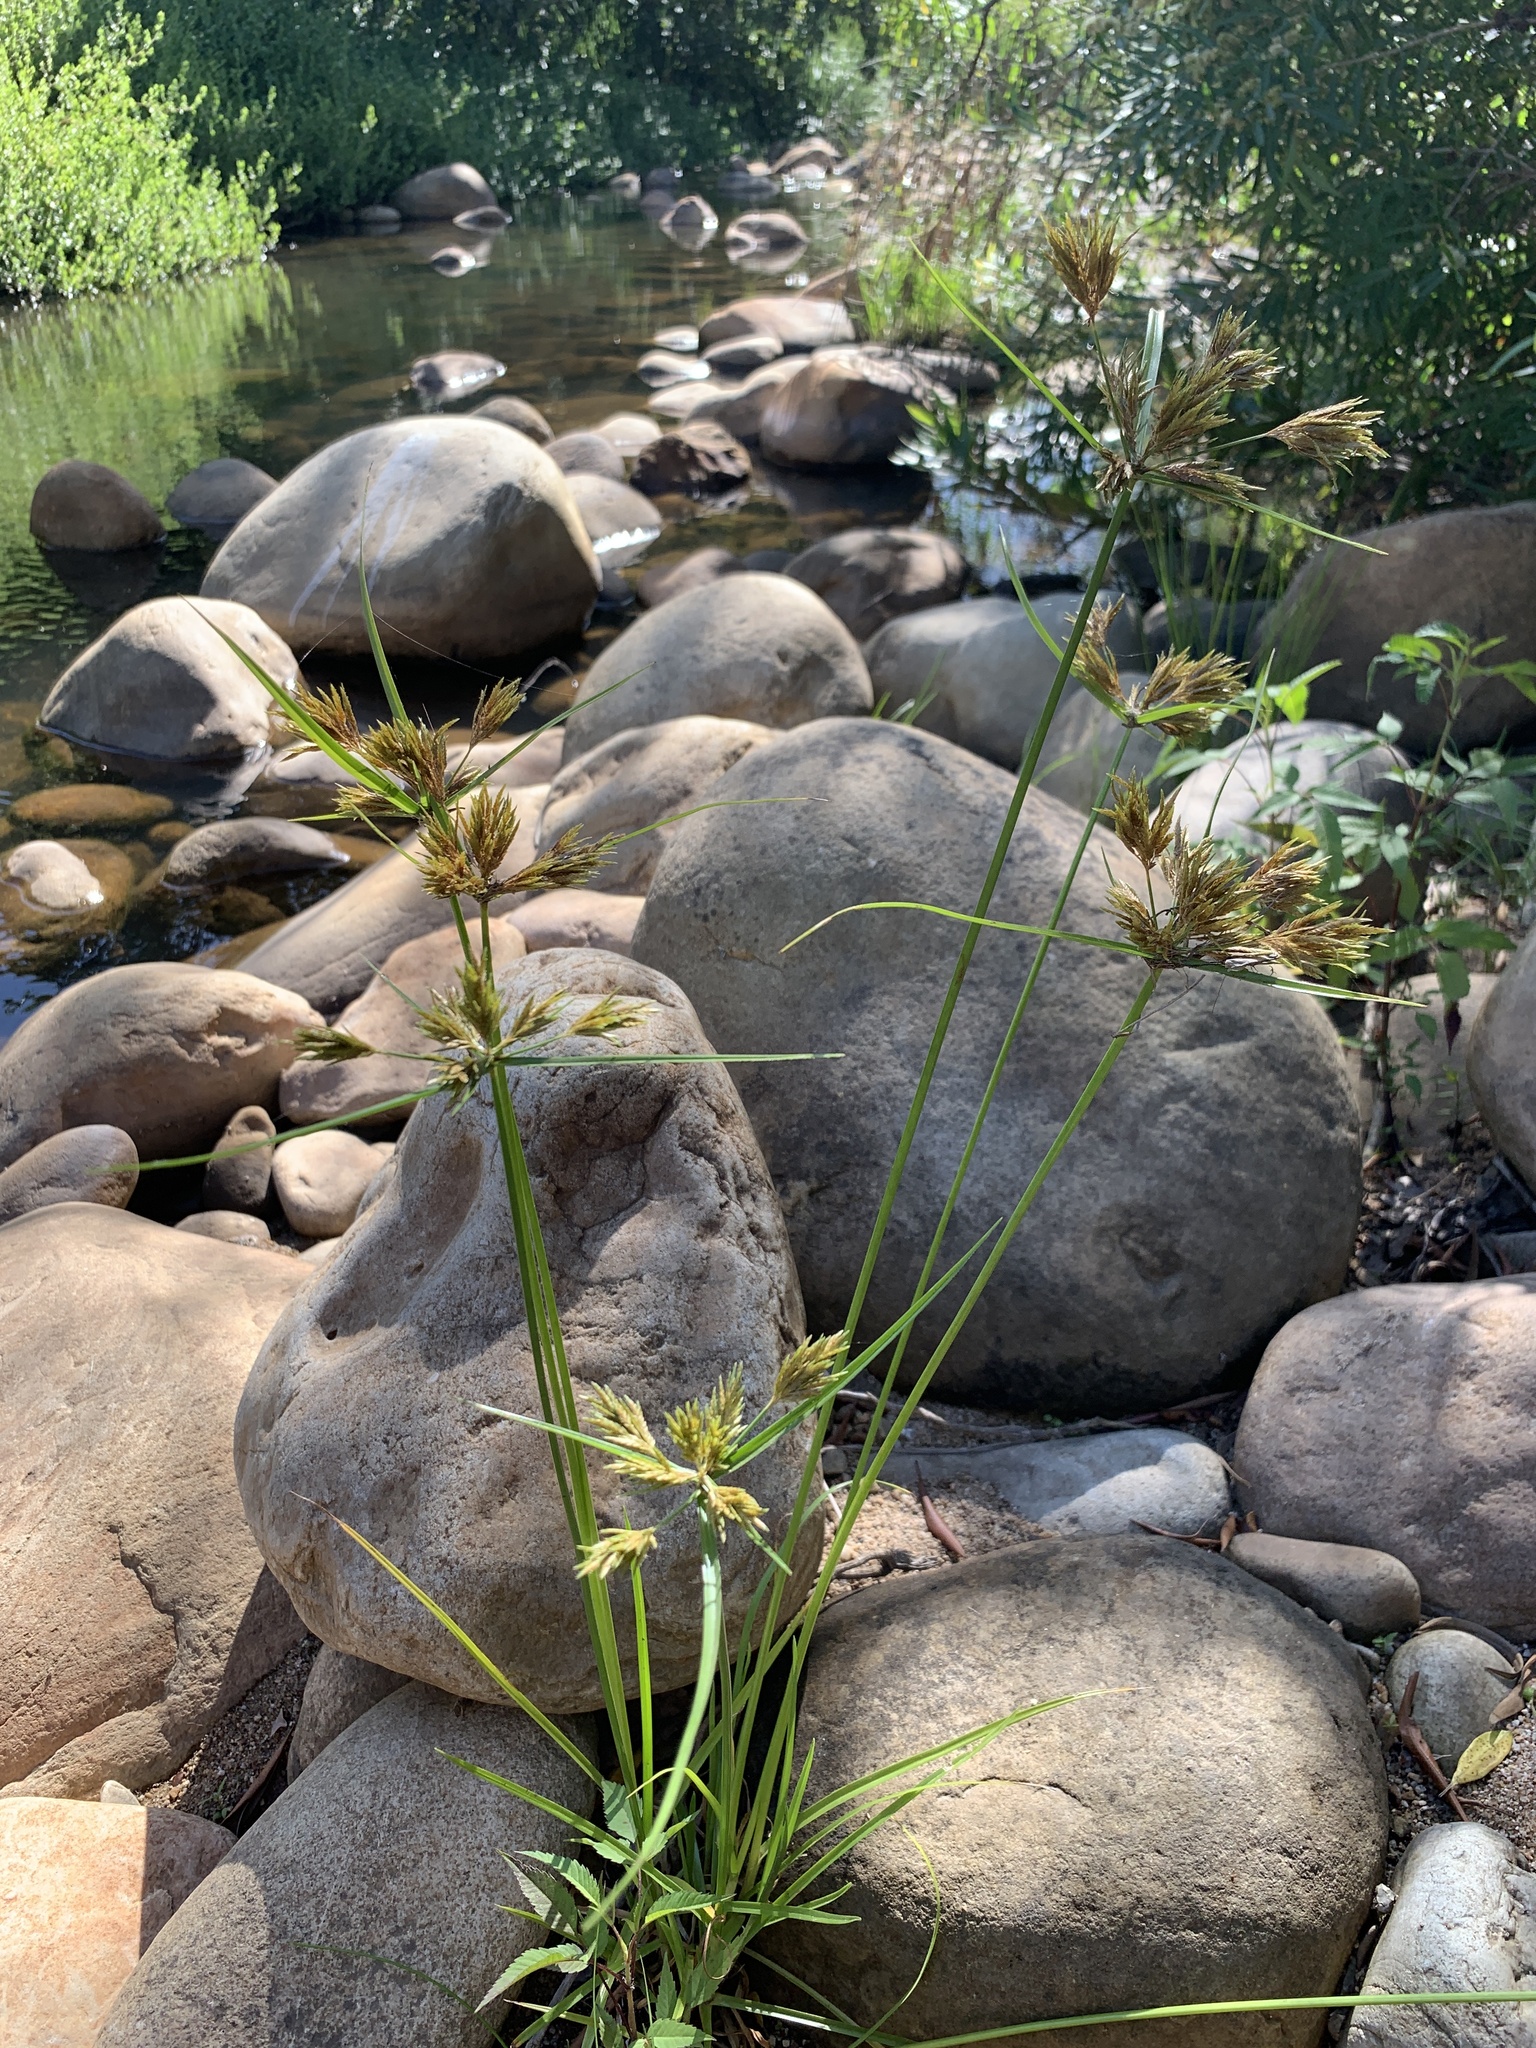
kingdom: Plantae
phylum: Tracheophyta
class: Liliopsida
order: Poales
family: Cyperaceae
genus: Cyperus
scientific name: Cyperus polystachyos
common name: Bunchy flat sedge
